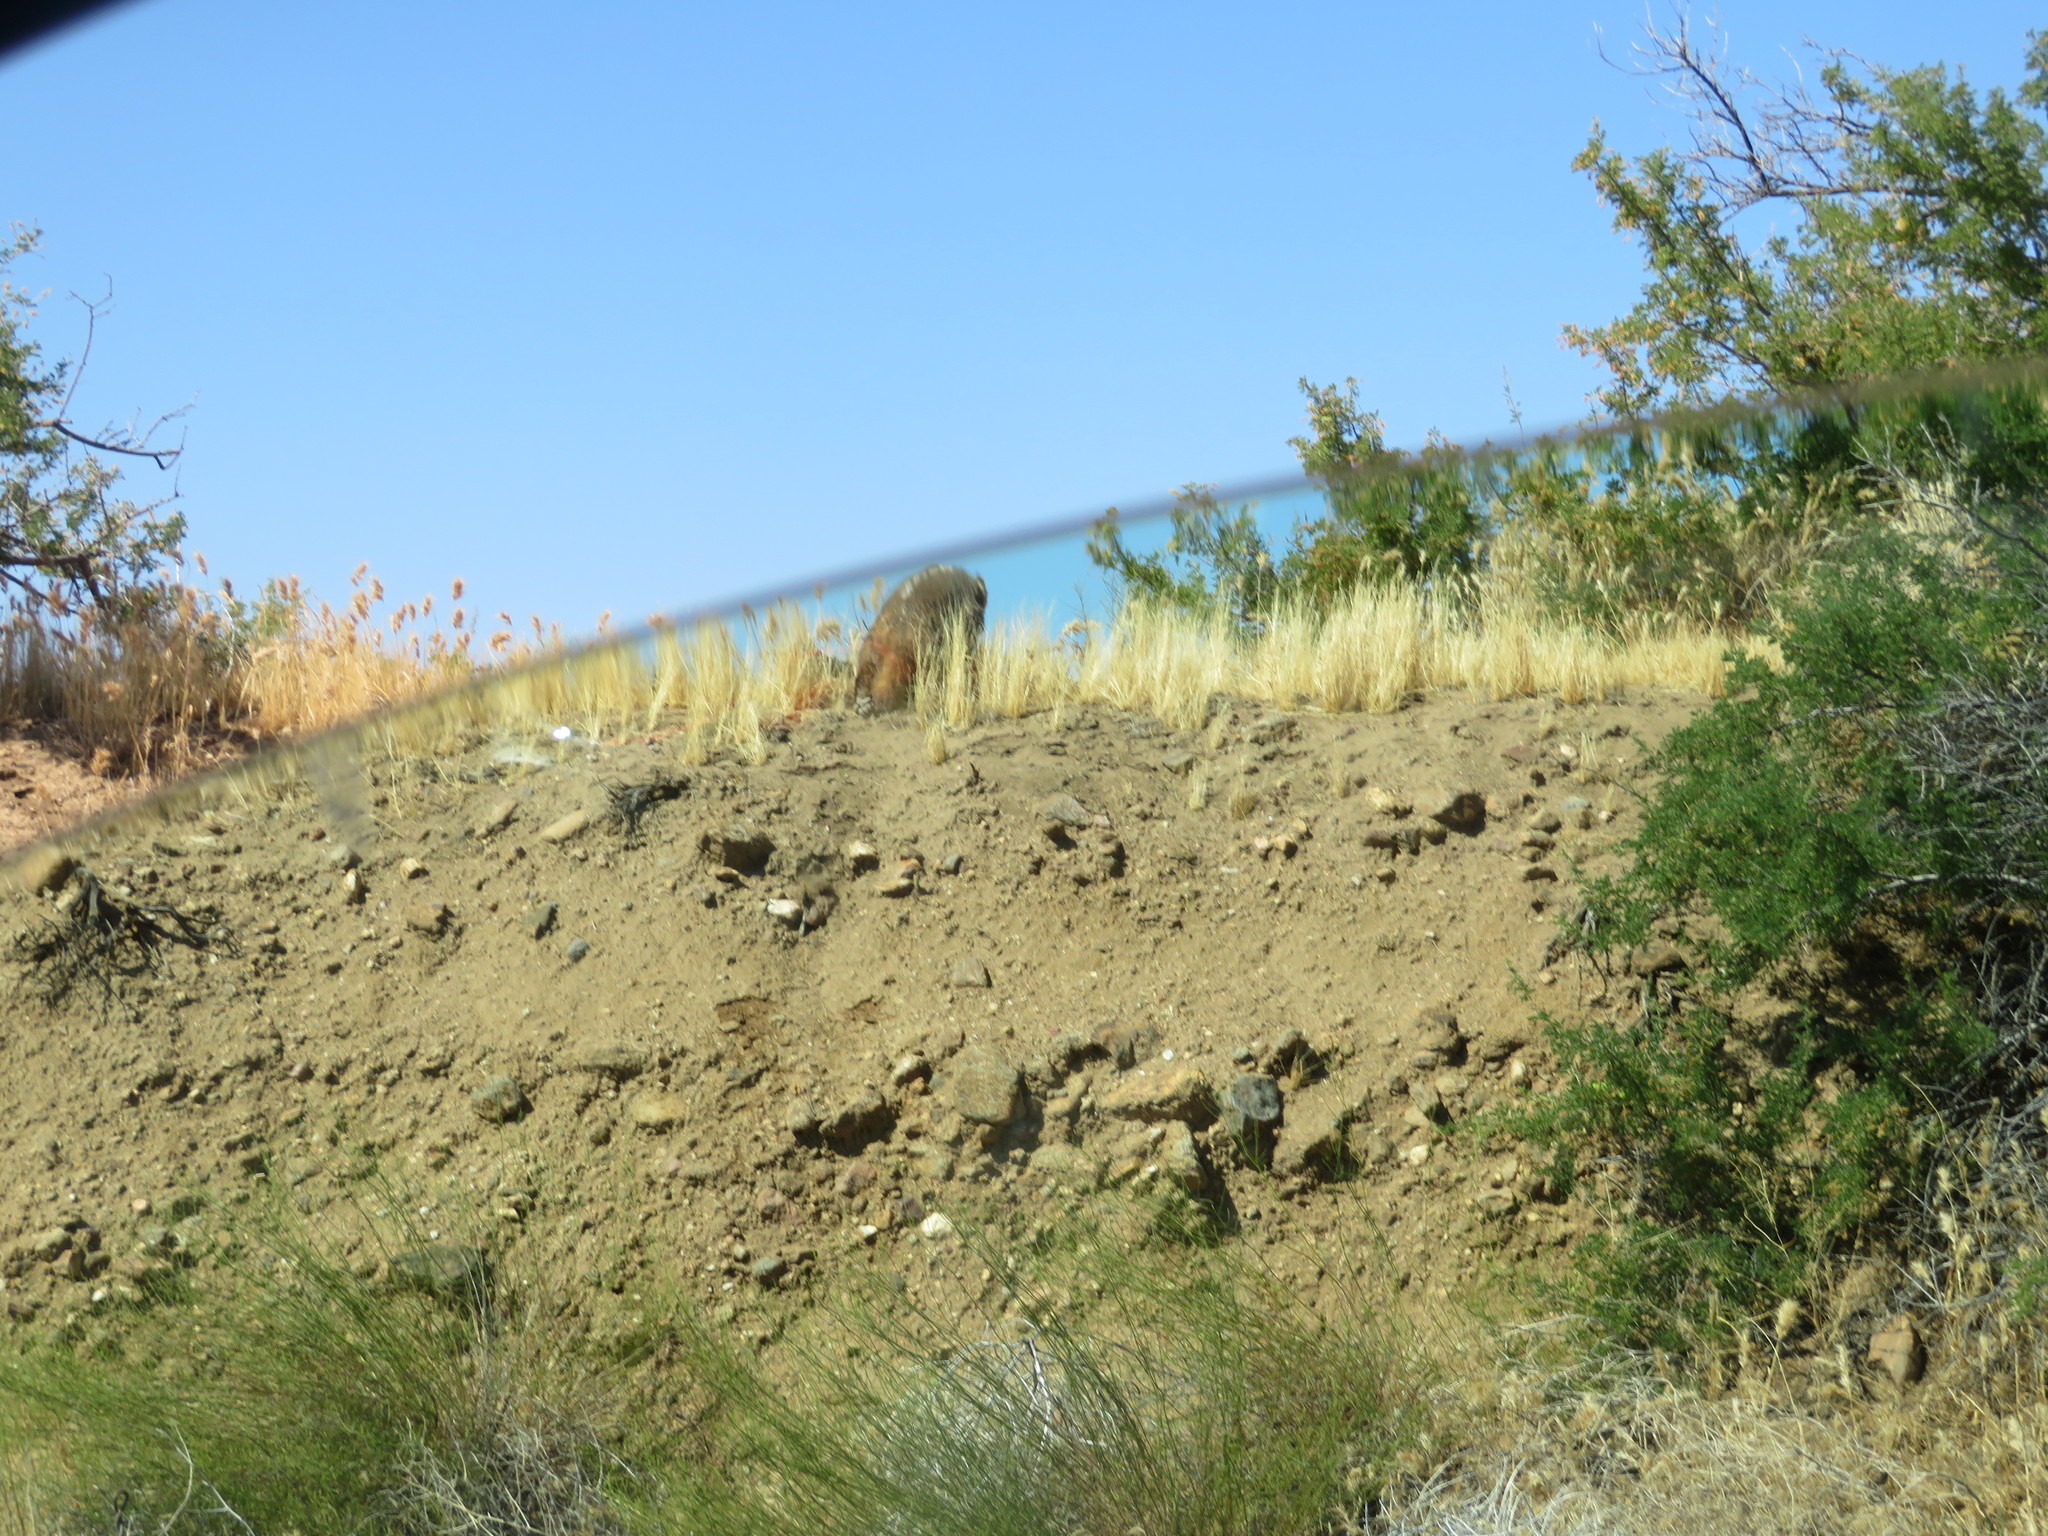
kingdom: Animalia
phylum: Chordata
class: Mammalia
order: Carnivora
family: Mustelidae
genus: Taxidea
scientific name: Taxidea taxus
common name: American badger
